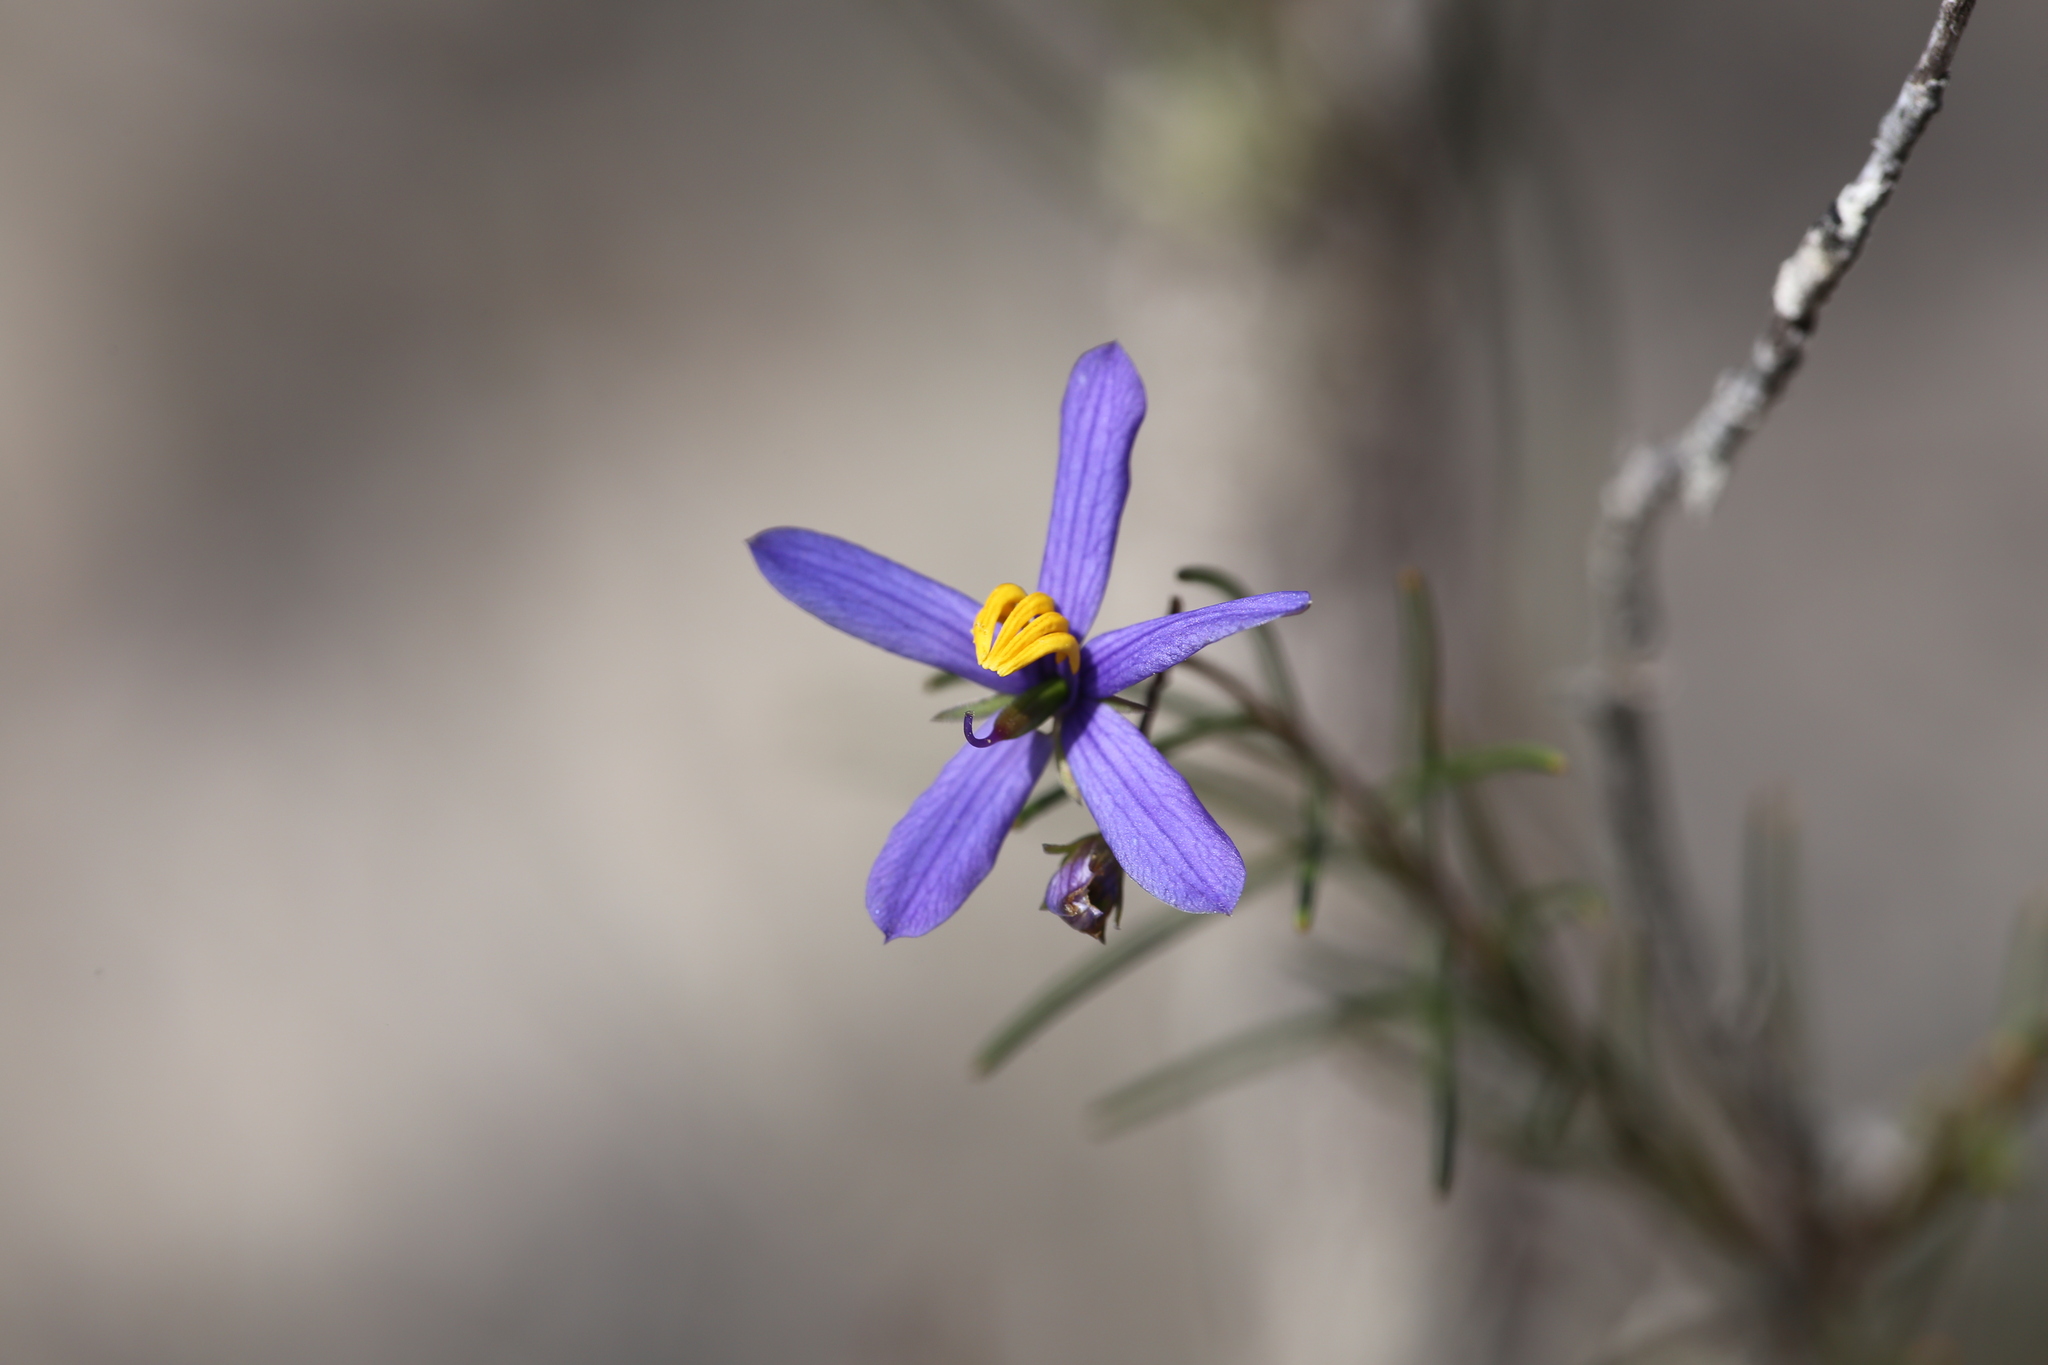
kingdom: Plantae
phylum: Tracheophyta
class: Magnoliopsida
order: Apiales
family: Pittosporaceae
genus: Cheiranthera
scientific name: Cheiranthera filifolia
